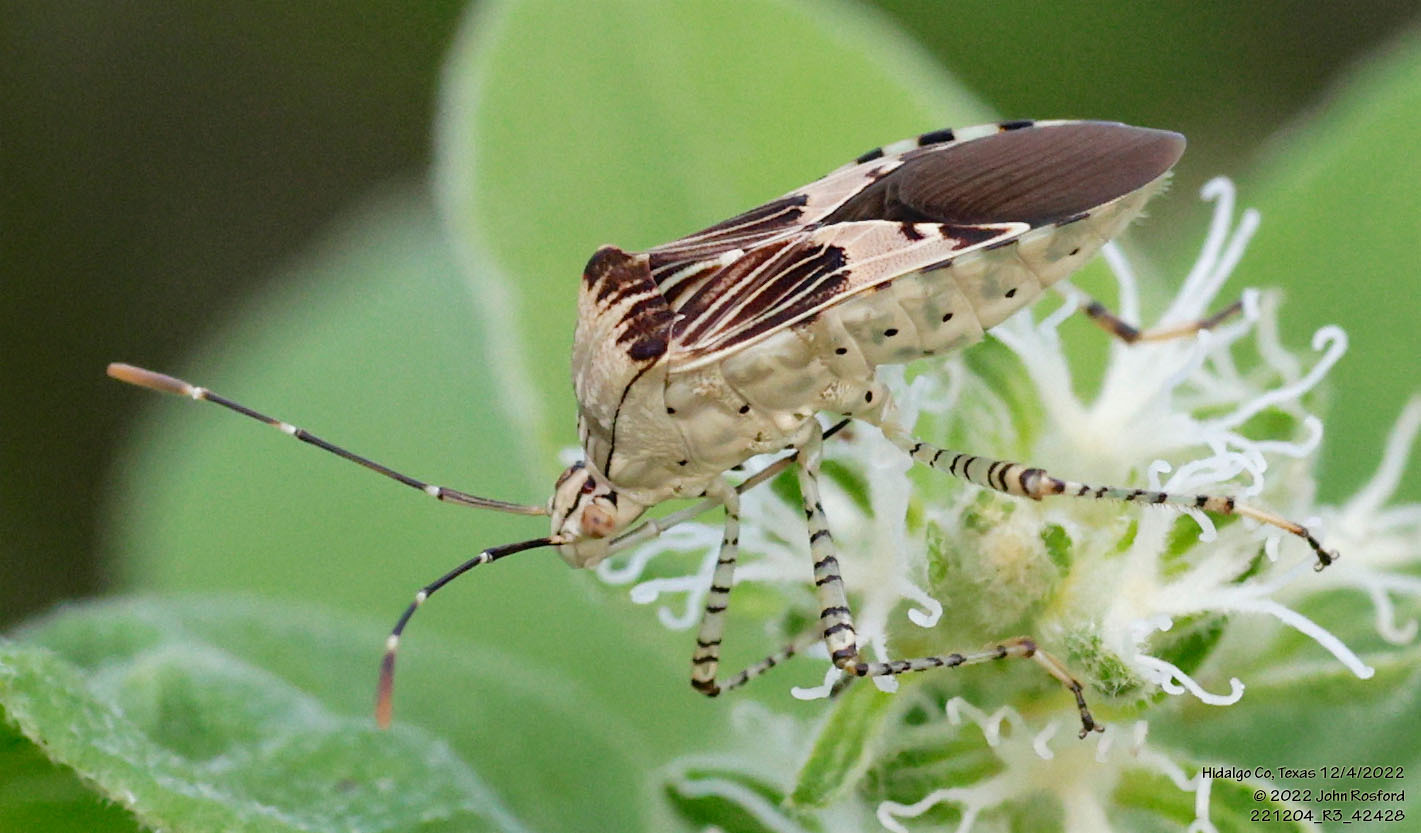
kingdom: Animalia
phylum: Arthropoda
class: Insecta
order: Hemiptera
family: Coreidae
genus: Hypselonotus
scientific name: Hypselonotus punctiventris
